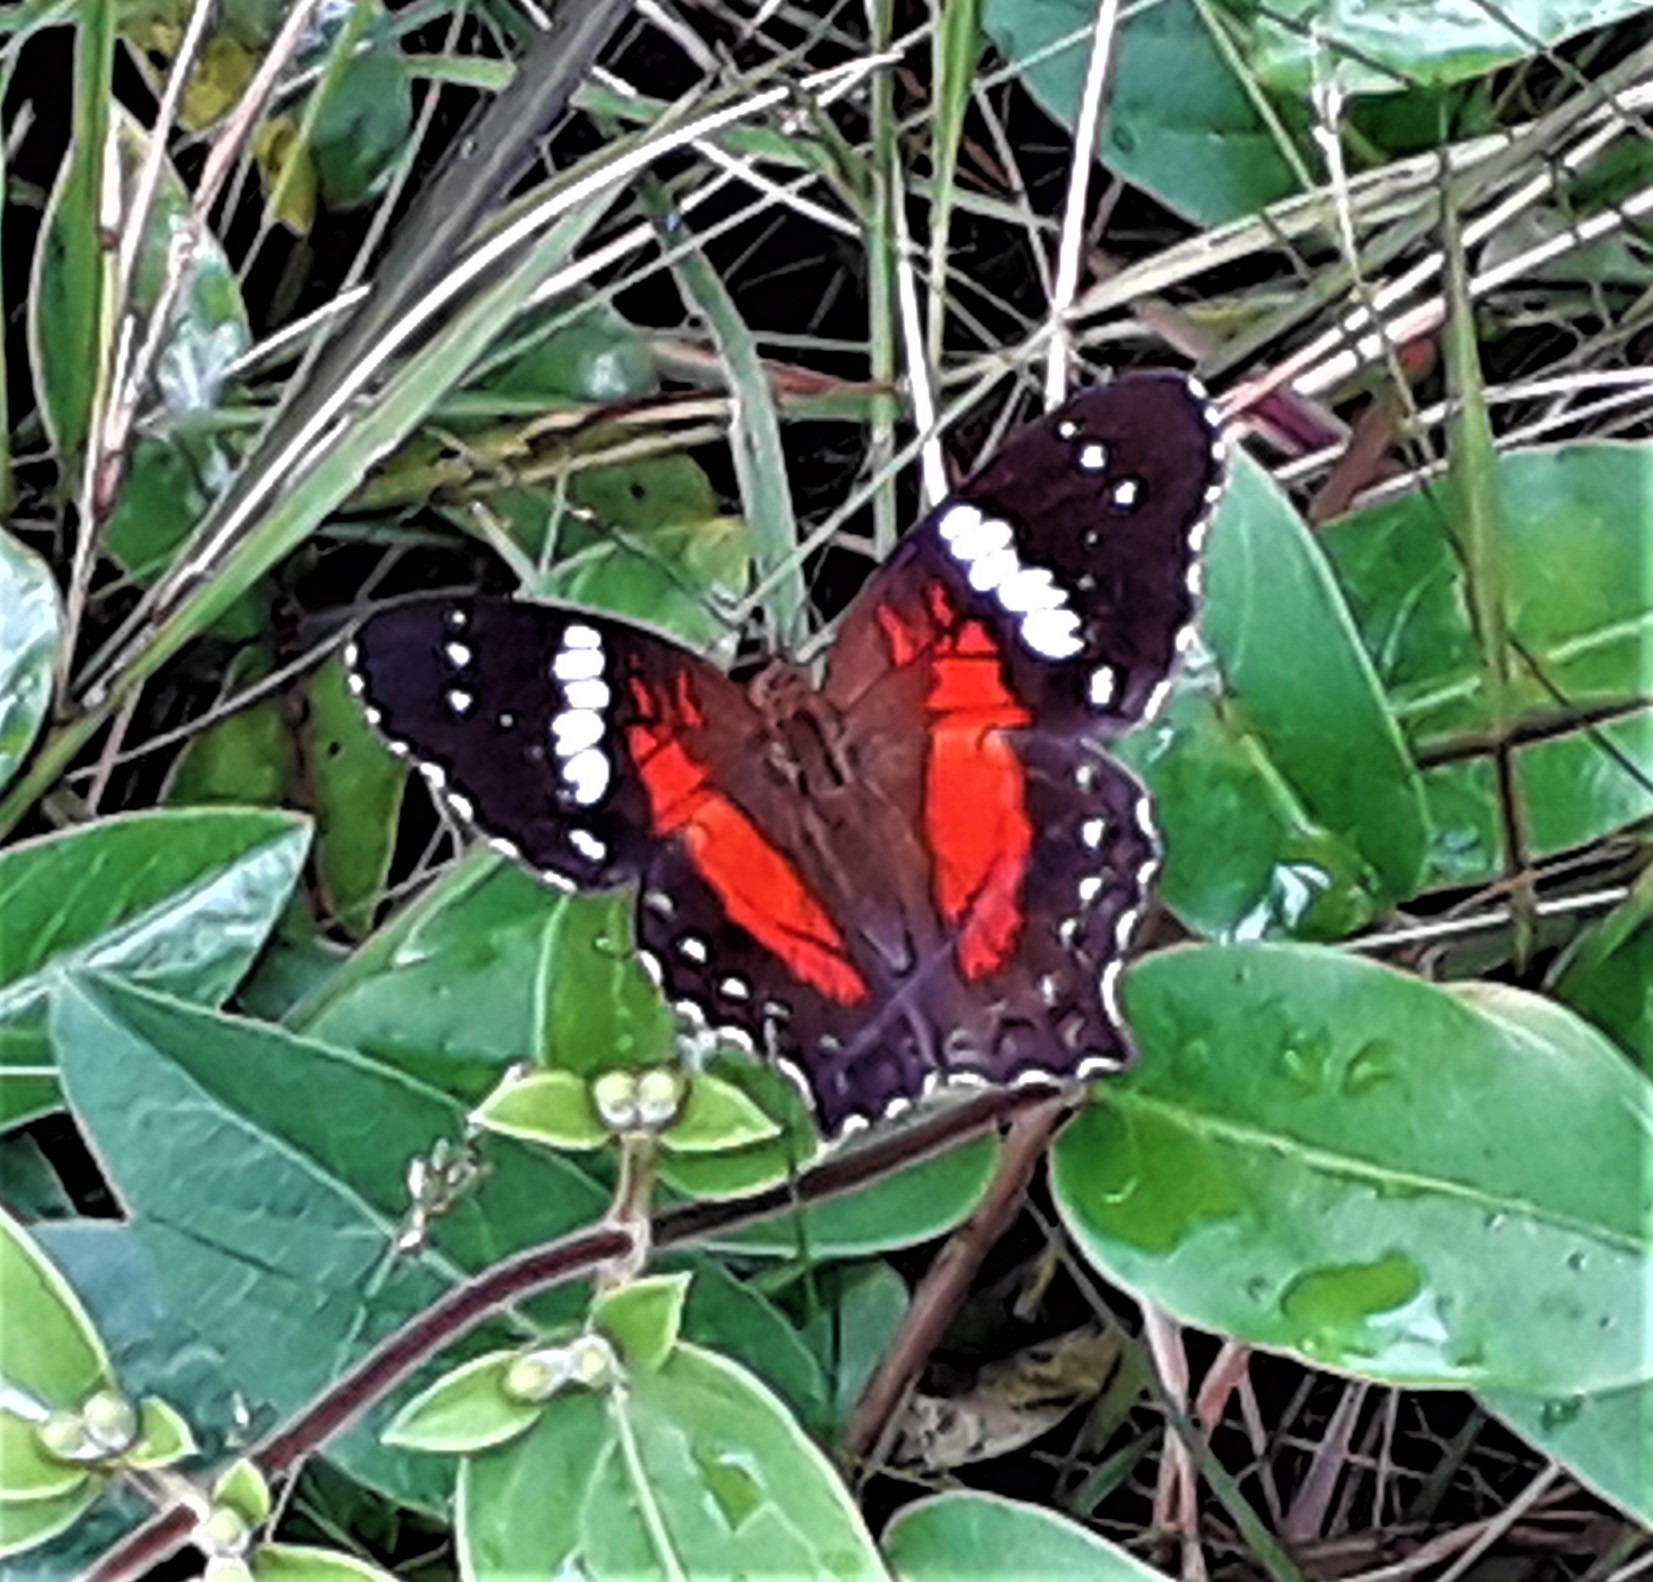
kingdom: Animalia
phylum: Arthropoda
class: Insecta
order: Lepidoptera
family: Nymphalidae
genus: Anartia
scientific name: Anartia amathea
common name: Red peacock
